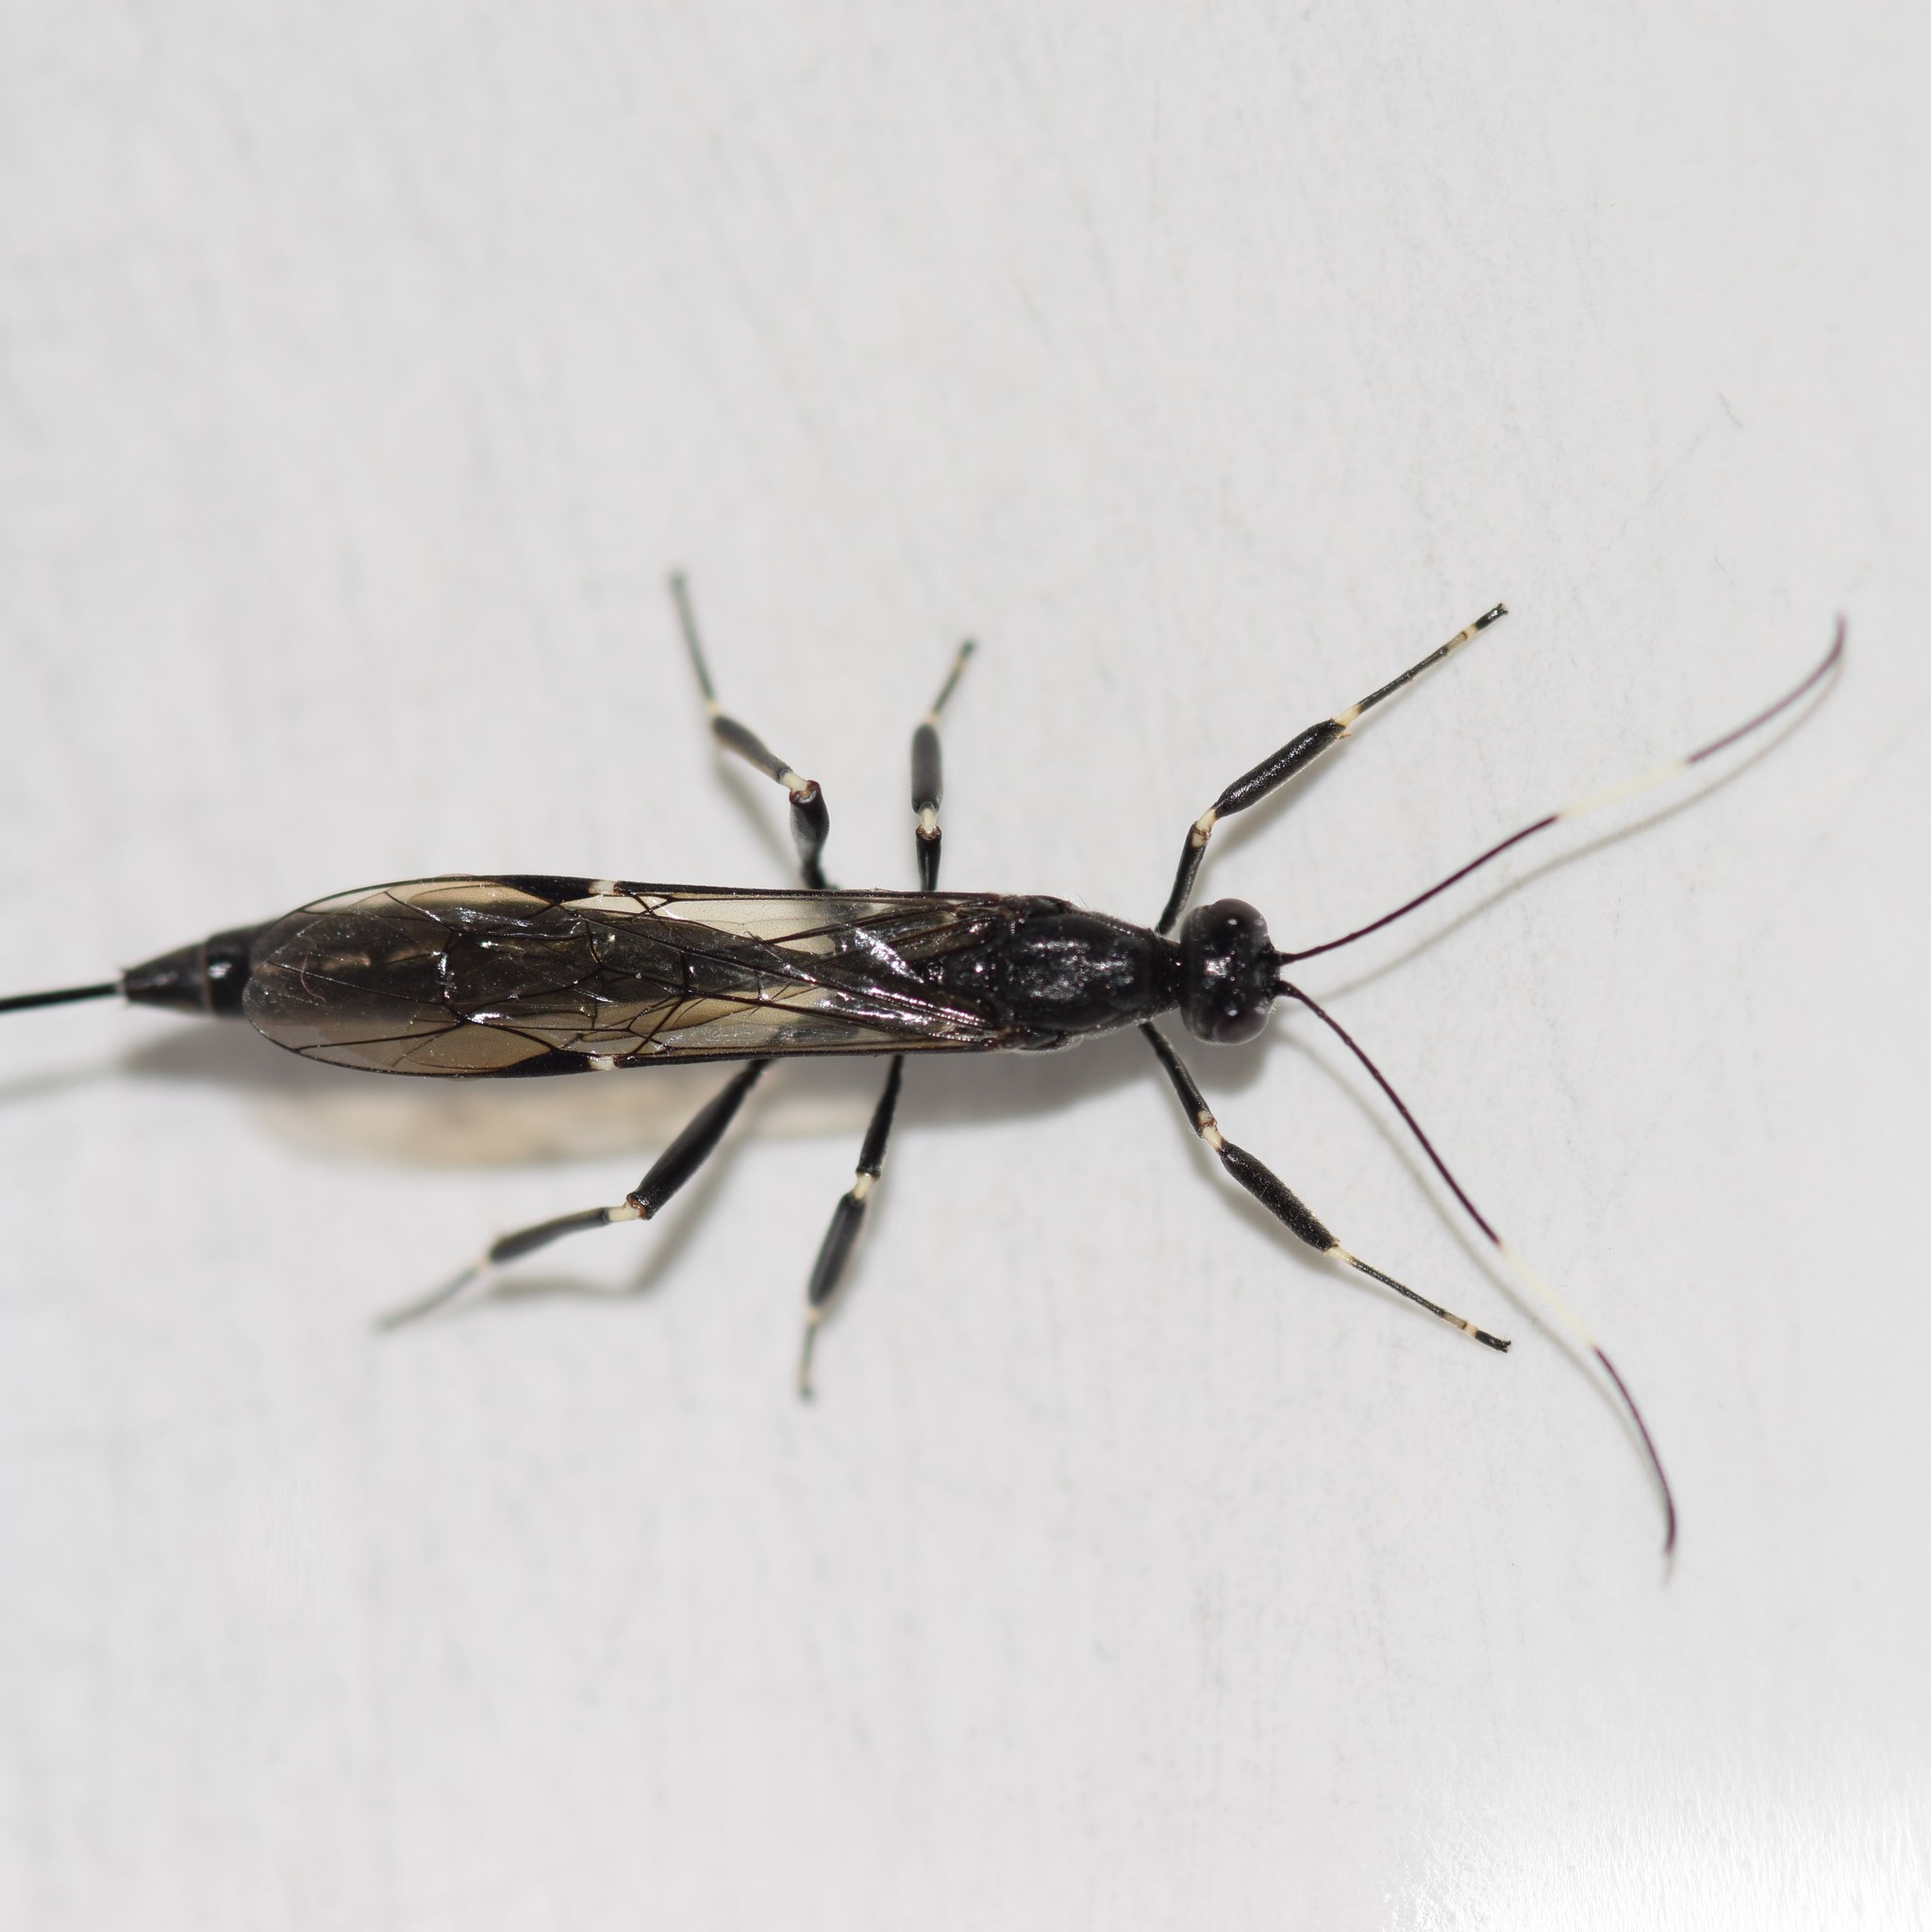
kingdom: Animalia
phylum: Arthropoda
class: Insecta
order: Hymenoptera
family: Ichneumonidae
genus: Xorides
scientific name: Xorides stigmapterus
